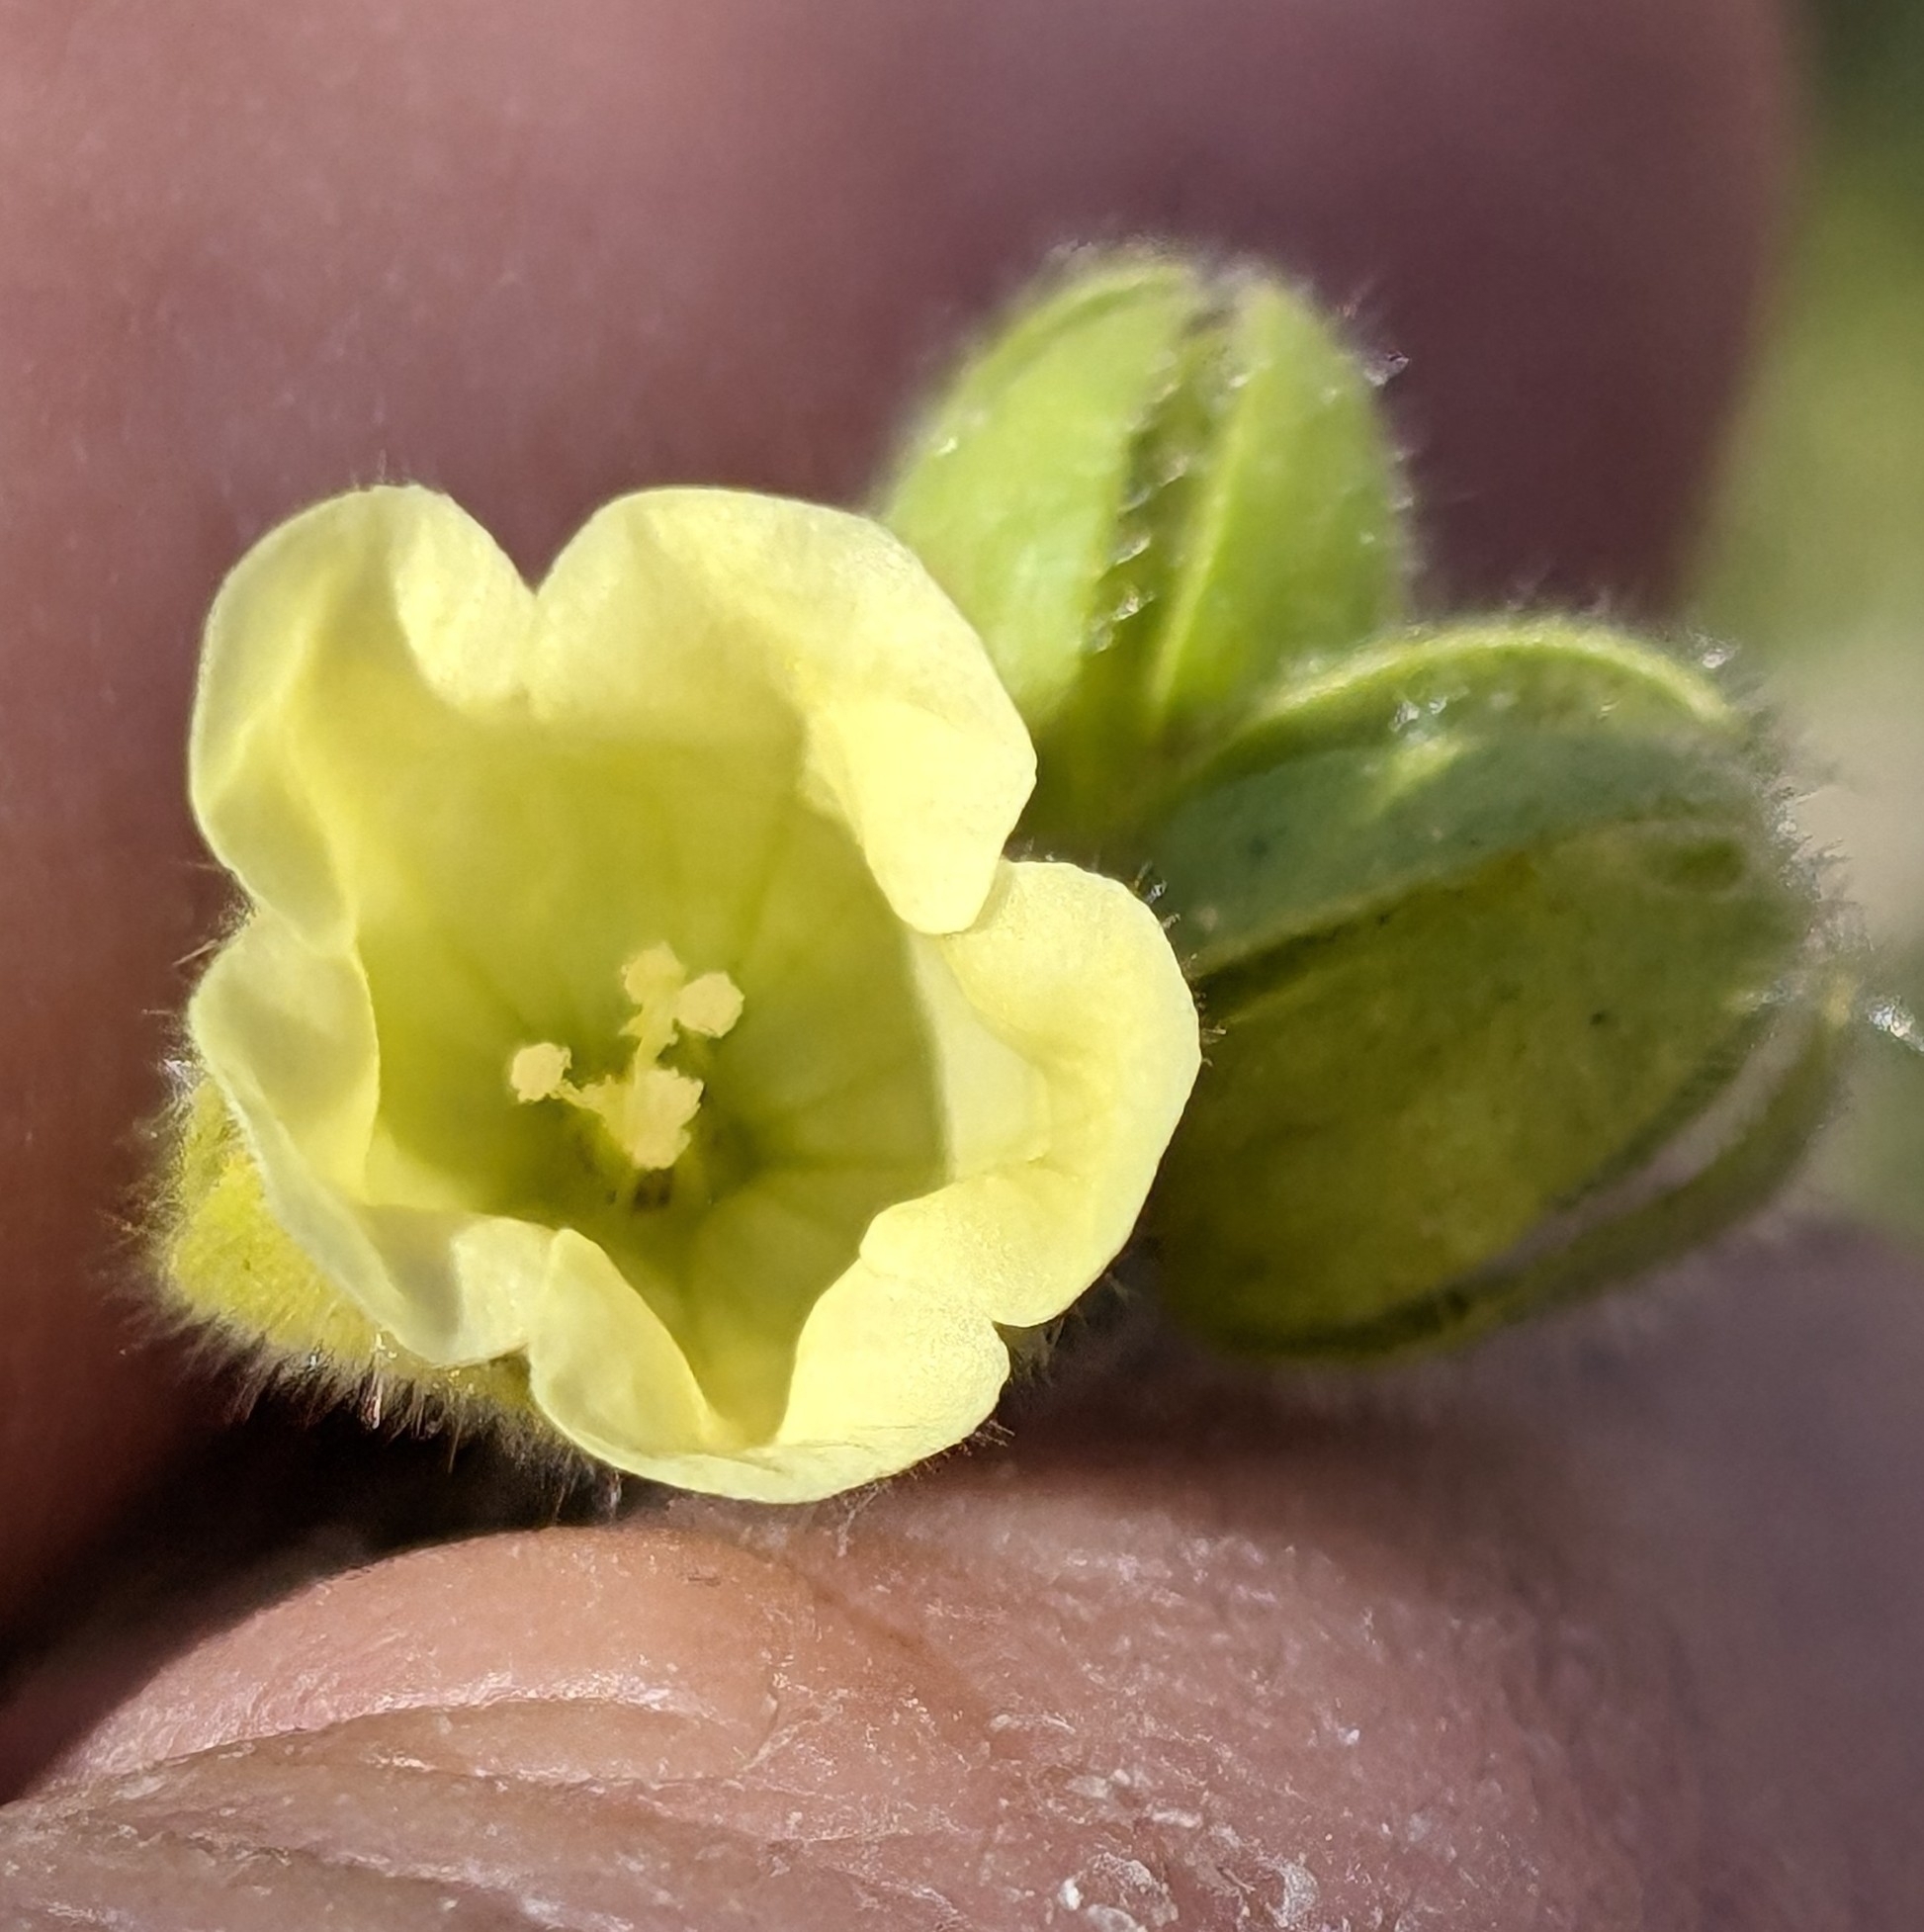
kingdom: Plantae
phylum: Tracheophyta
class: Magnoliopsida
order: Boraginales
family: Hydrophyllaceae
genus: Emmenanthe
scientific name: Emmenanthe penduliflora
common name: Whispering-bells
